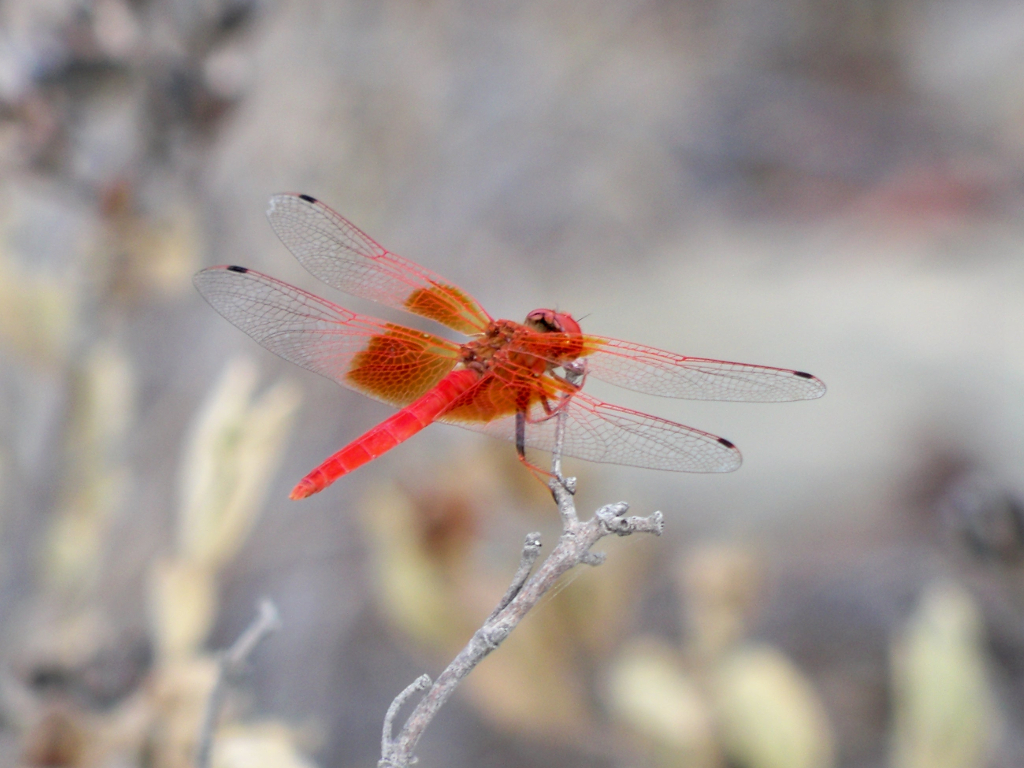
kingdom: Animalia
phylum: Arthropoda
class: Insecta
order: Odonata
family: Libellulidae
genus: Trithemis
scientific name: Trithemis kirbyi
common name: Kirby's dropwing
